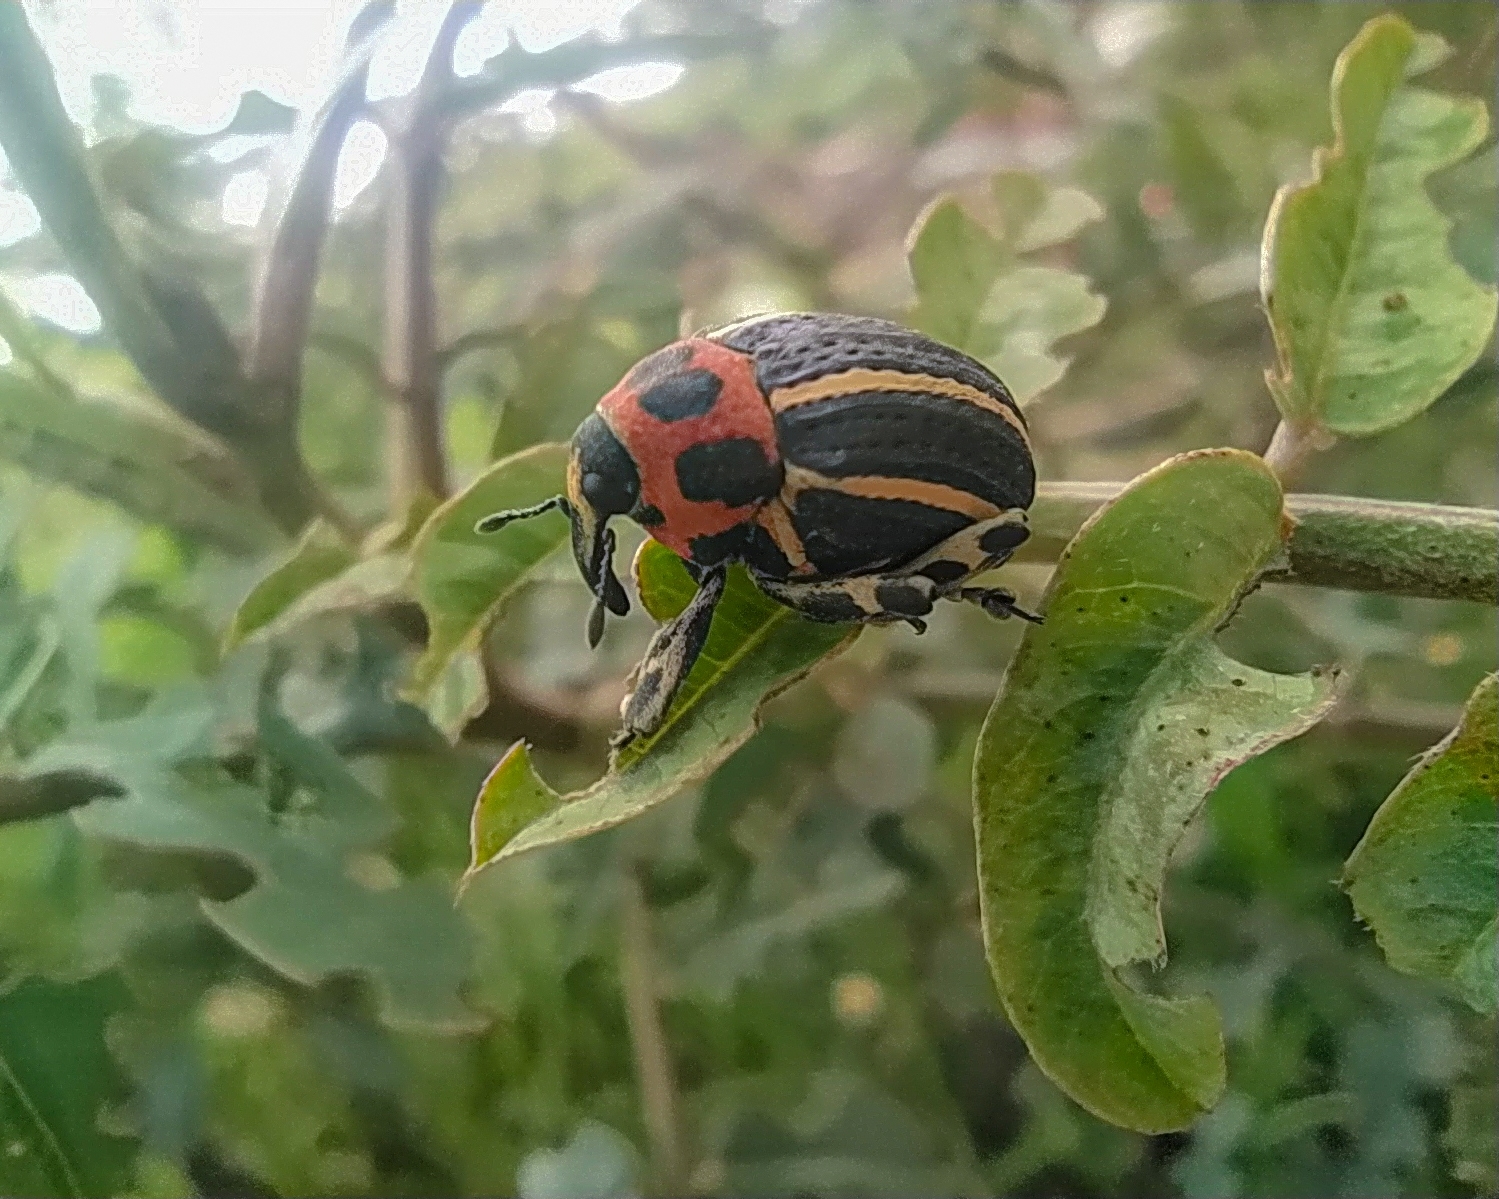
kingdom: Animalia
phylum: Arthropoda
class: Insecta
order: Coleoptera
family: Curculionidae
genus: Neodiplogrammus
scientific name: Neodiplogrammus
